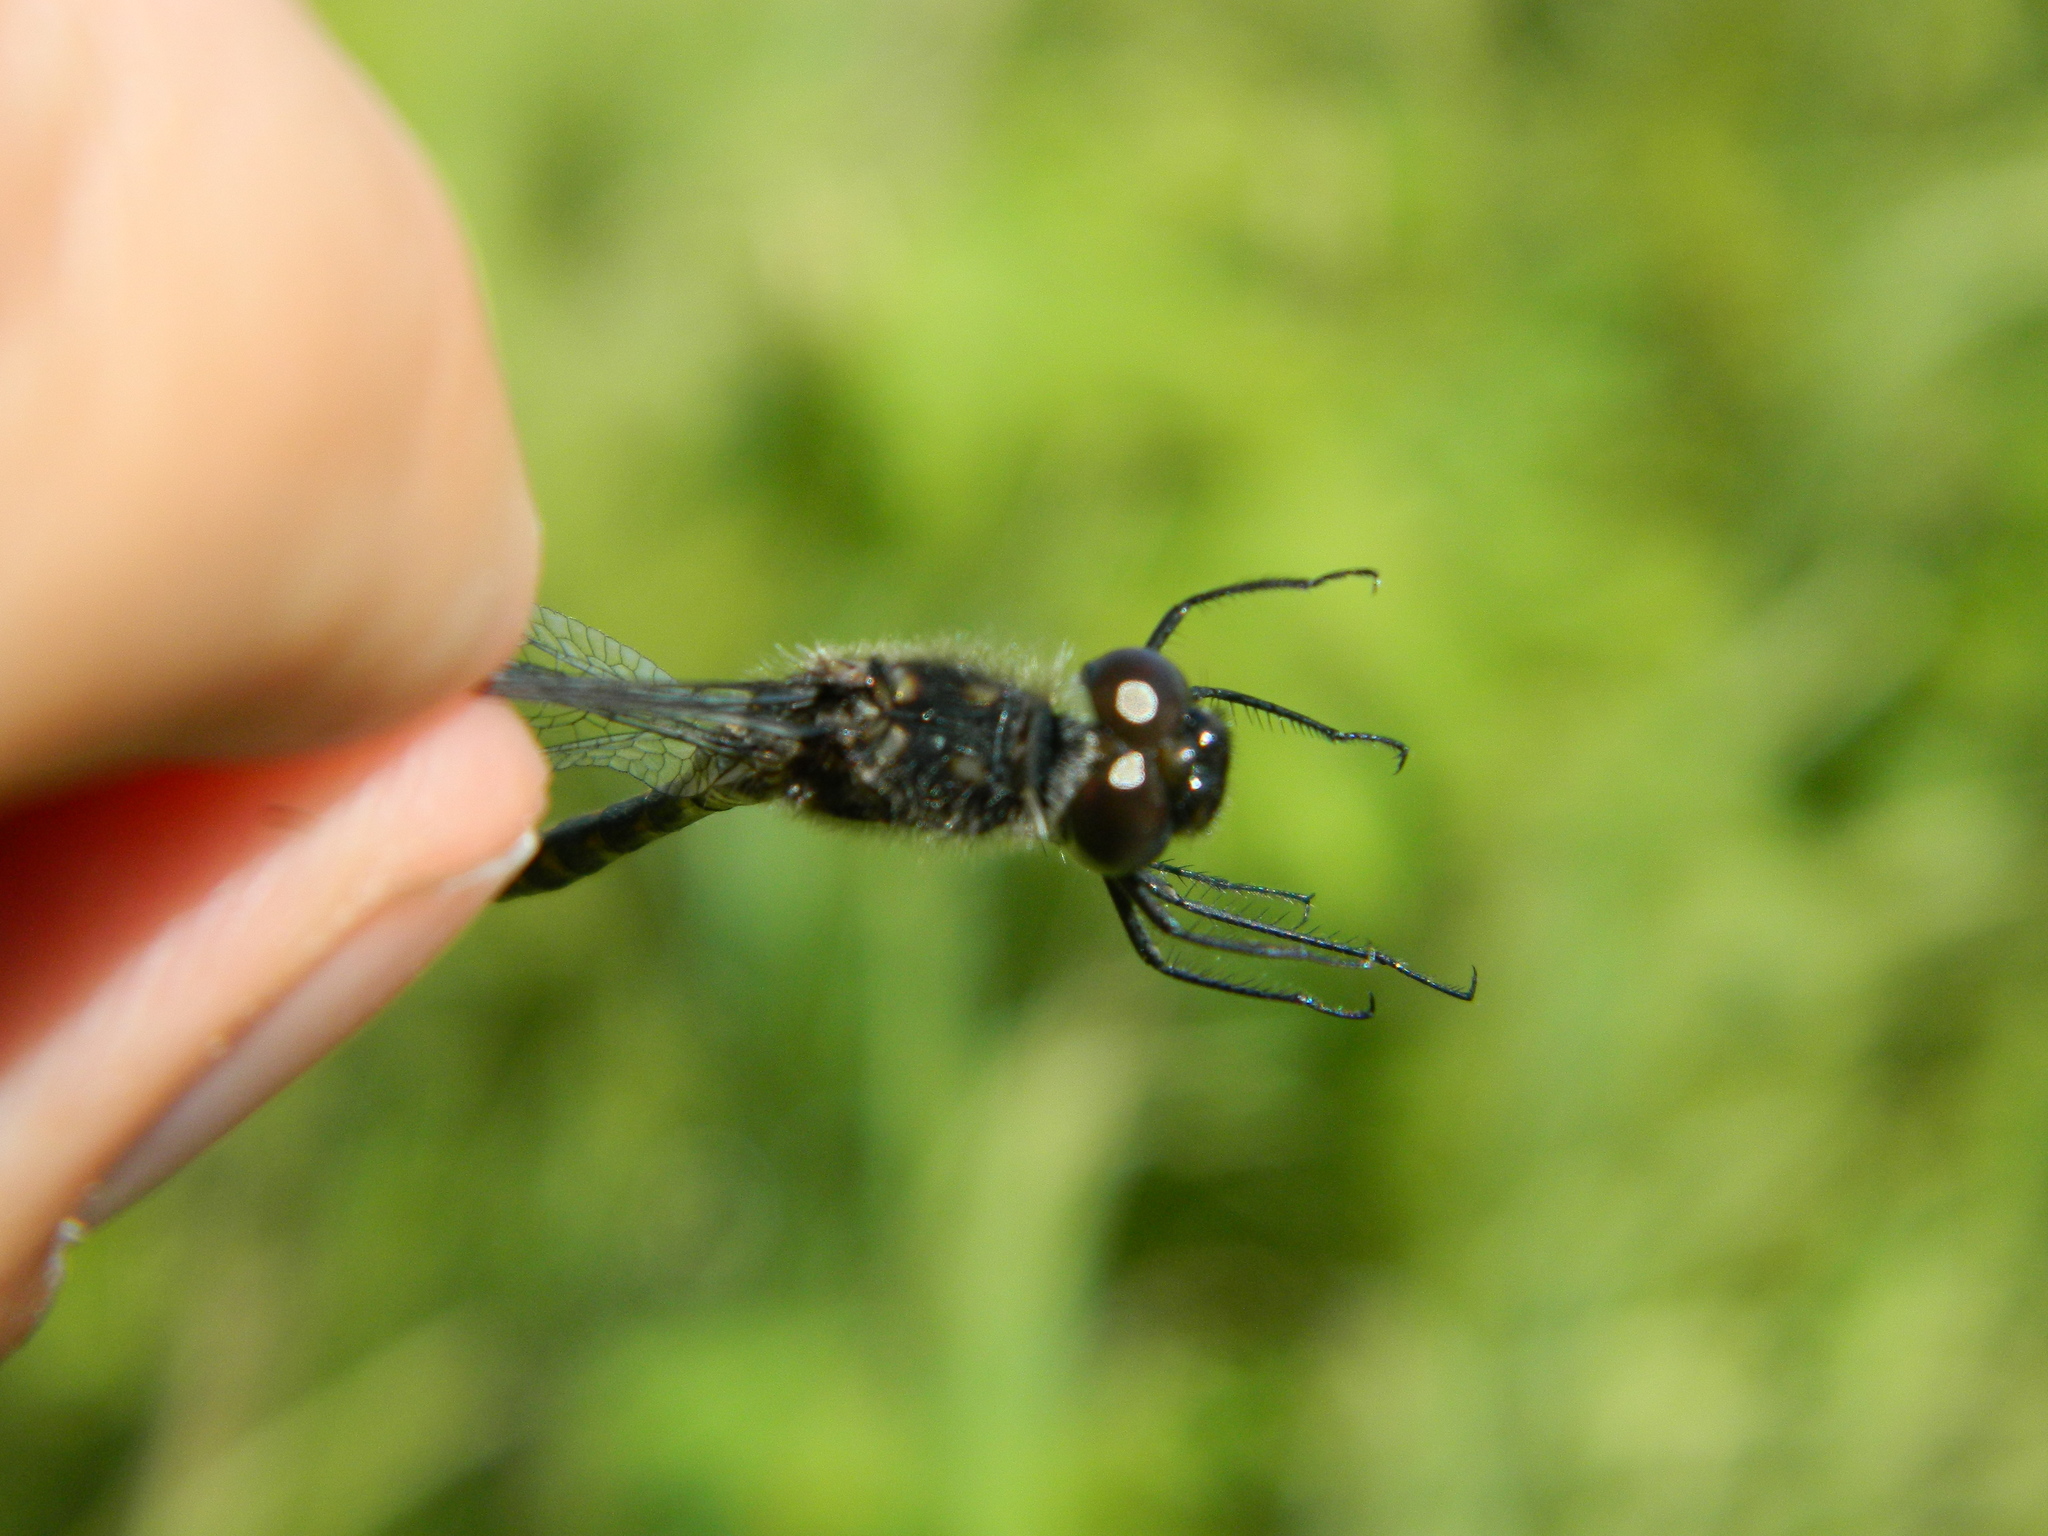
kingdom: Animalia
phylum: Arthropoda
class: Insecta
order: Odonata
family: Libellulidae
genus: Sympetrum
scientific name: Sympetrum danae
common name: Black darter
